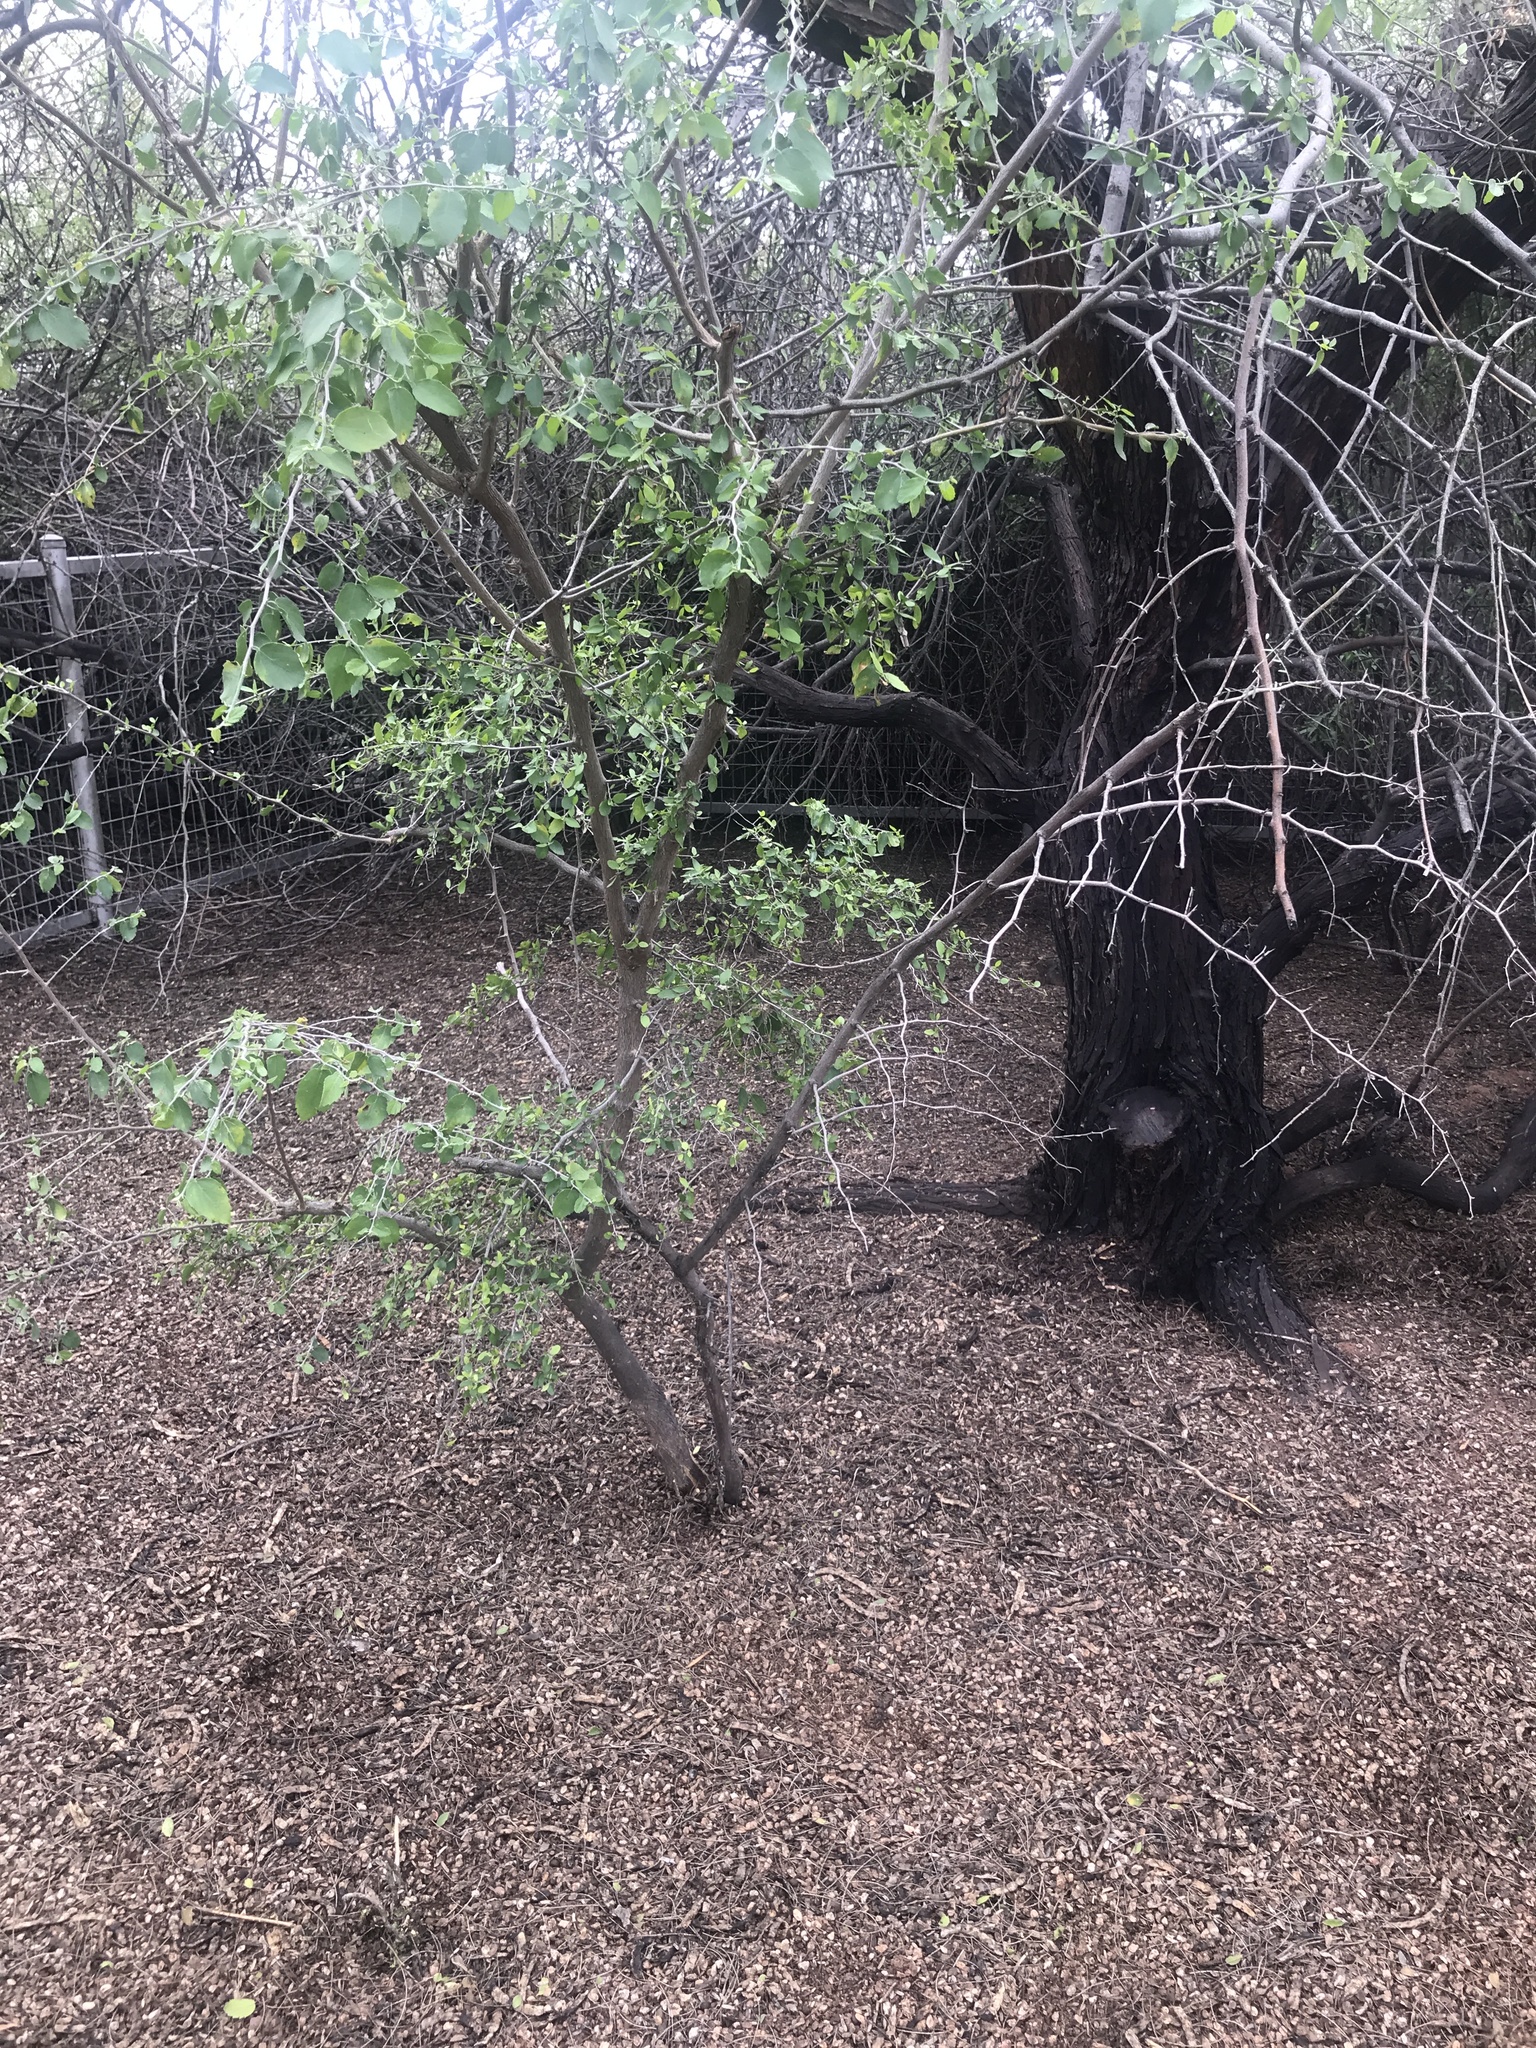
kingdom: Plantae
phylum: Tracheophyta
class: Magnoliopsida
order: Rosales
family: Cannabaceae
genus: Celtis
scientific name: Celtis pallida
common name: Desert hackberry
